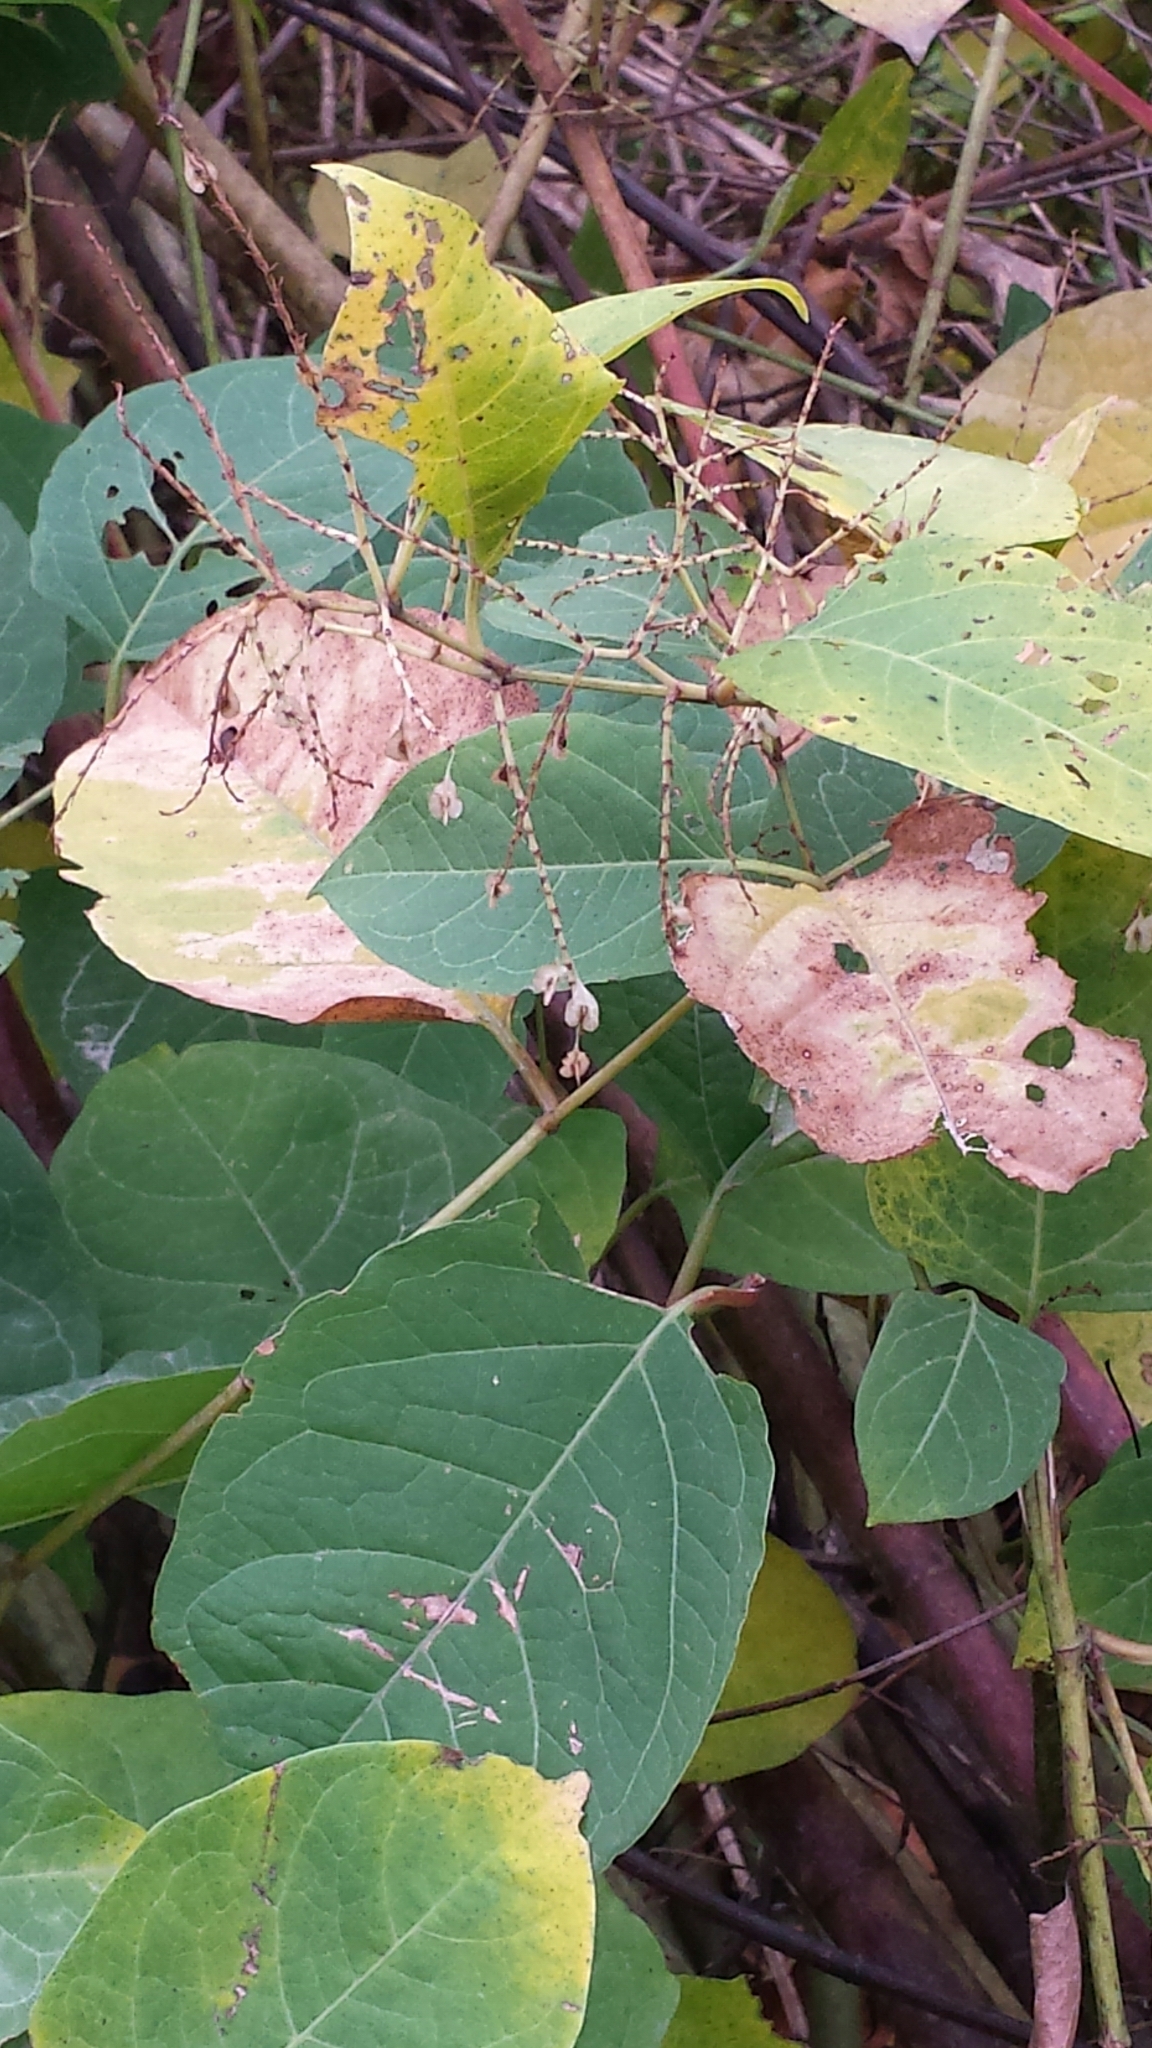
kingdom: Plantae
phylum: Tracheophyta
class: Magnoliopsida
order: Caryophyllales
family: Polygonaceae
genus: Reynoutria
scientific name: Reynoutria japonica
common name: Japanese knotweed
